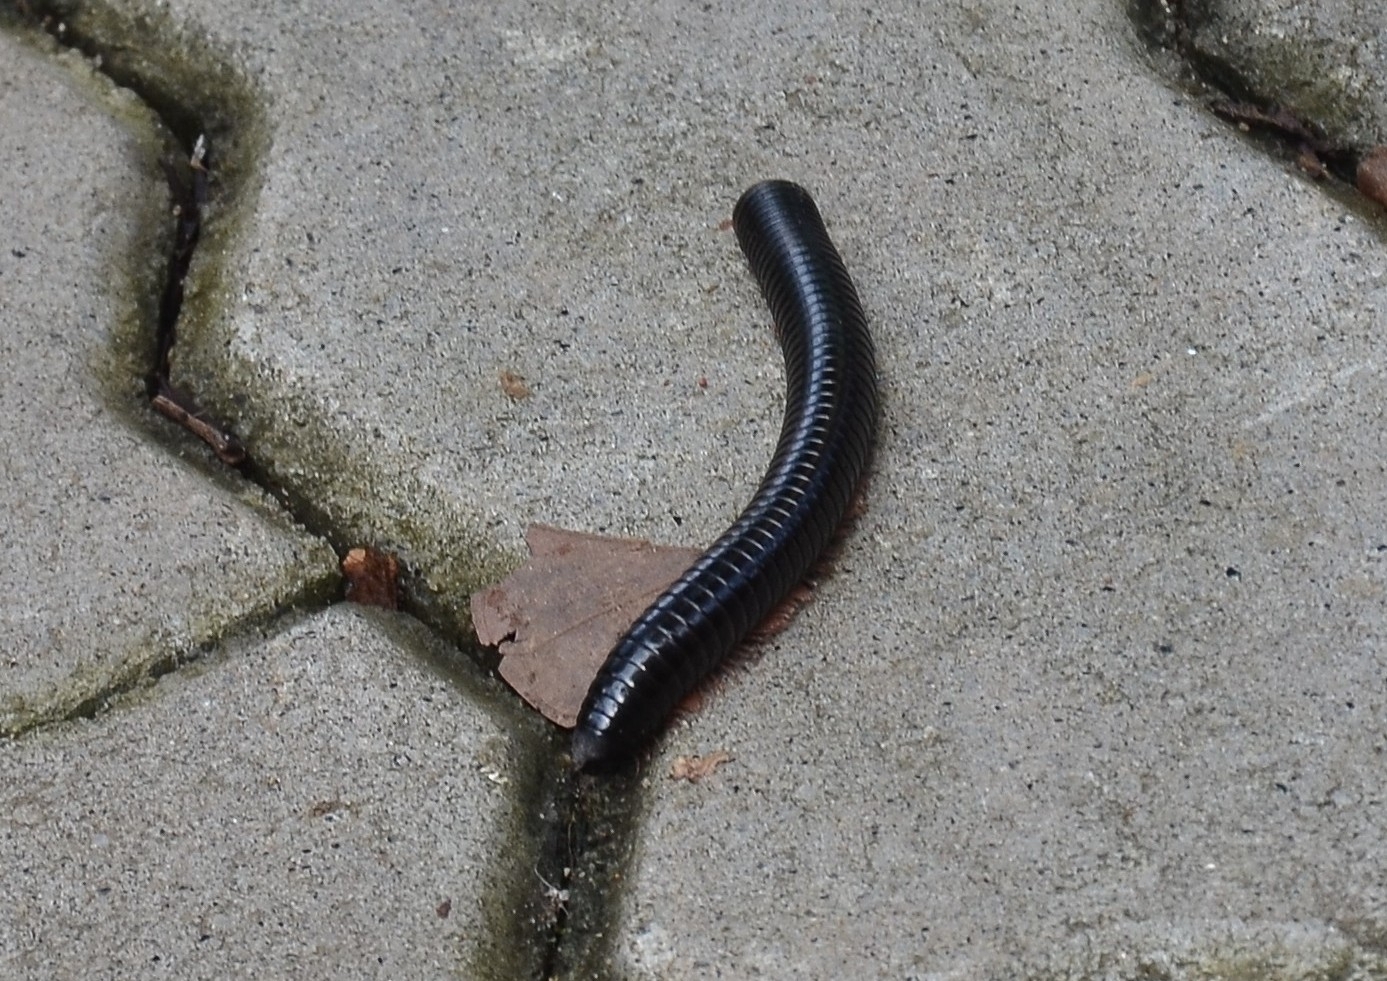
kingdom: Animalia
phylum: Arthropoda
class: Diplopoda
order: Spirostreptida
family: Harpagophoridae
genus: Phyllogonostreptus
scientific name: Phyllogonostreptus nigrolabiatus
